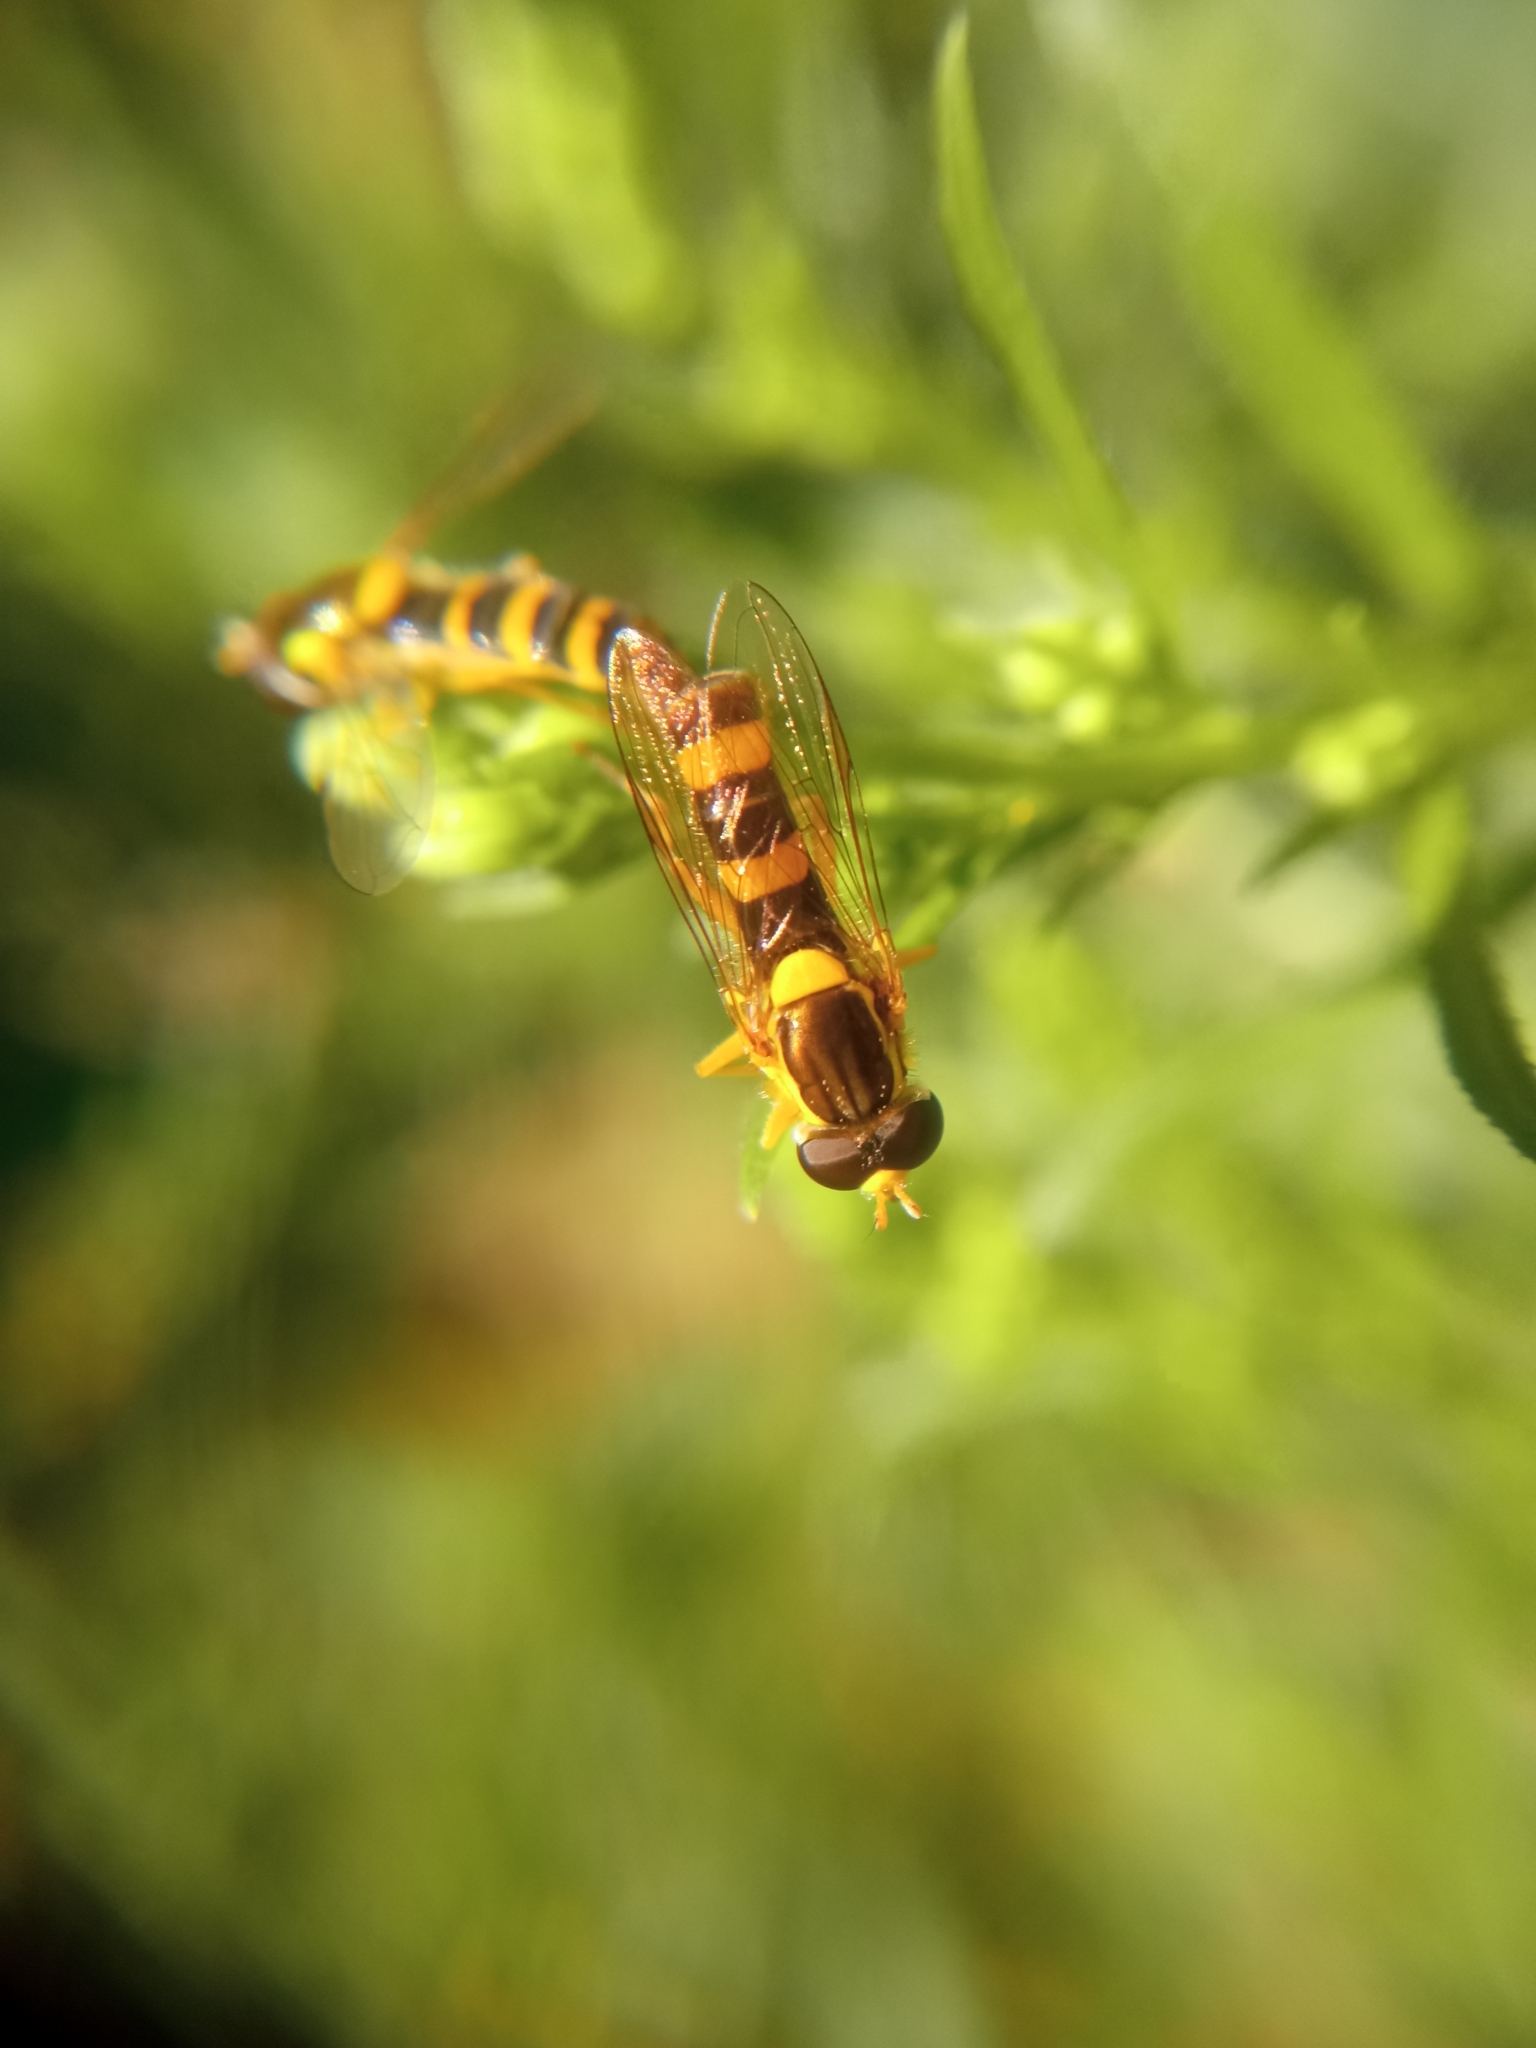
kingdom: Animalia
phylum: Arthropoda
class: Insecta
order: Diptera
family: Syrphidae
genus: Sphaerophoria
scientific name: Sphaerophoria scripta
